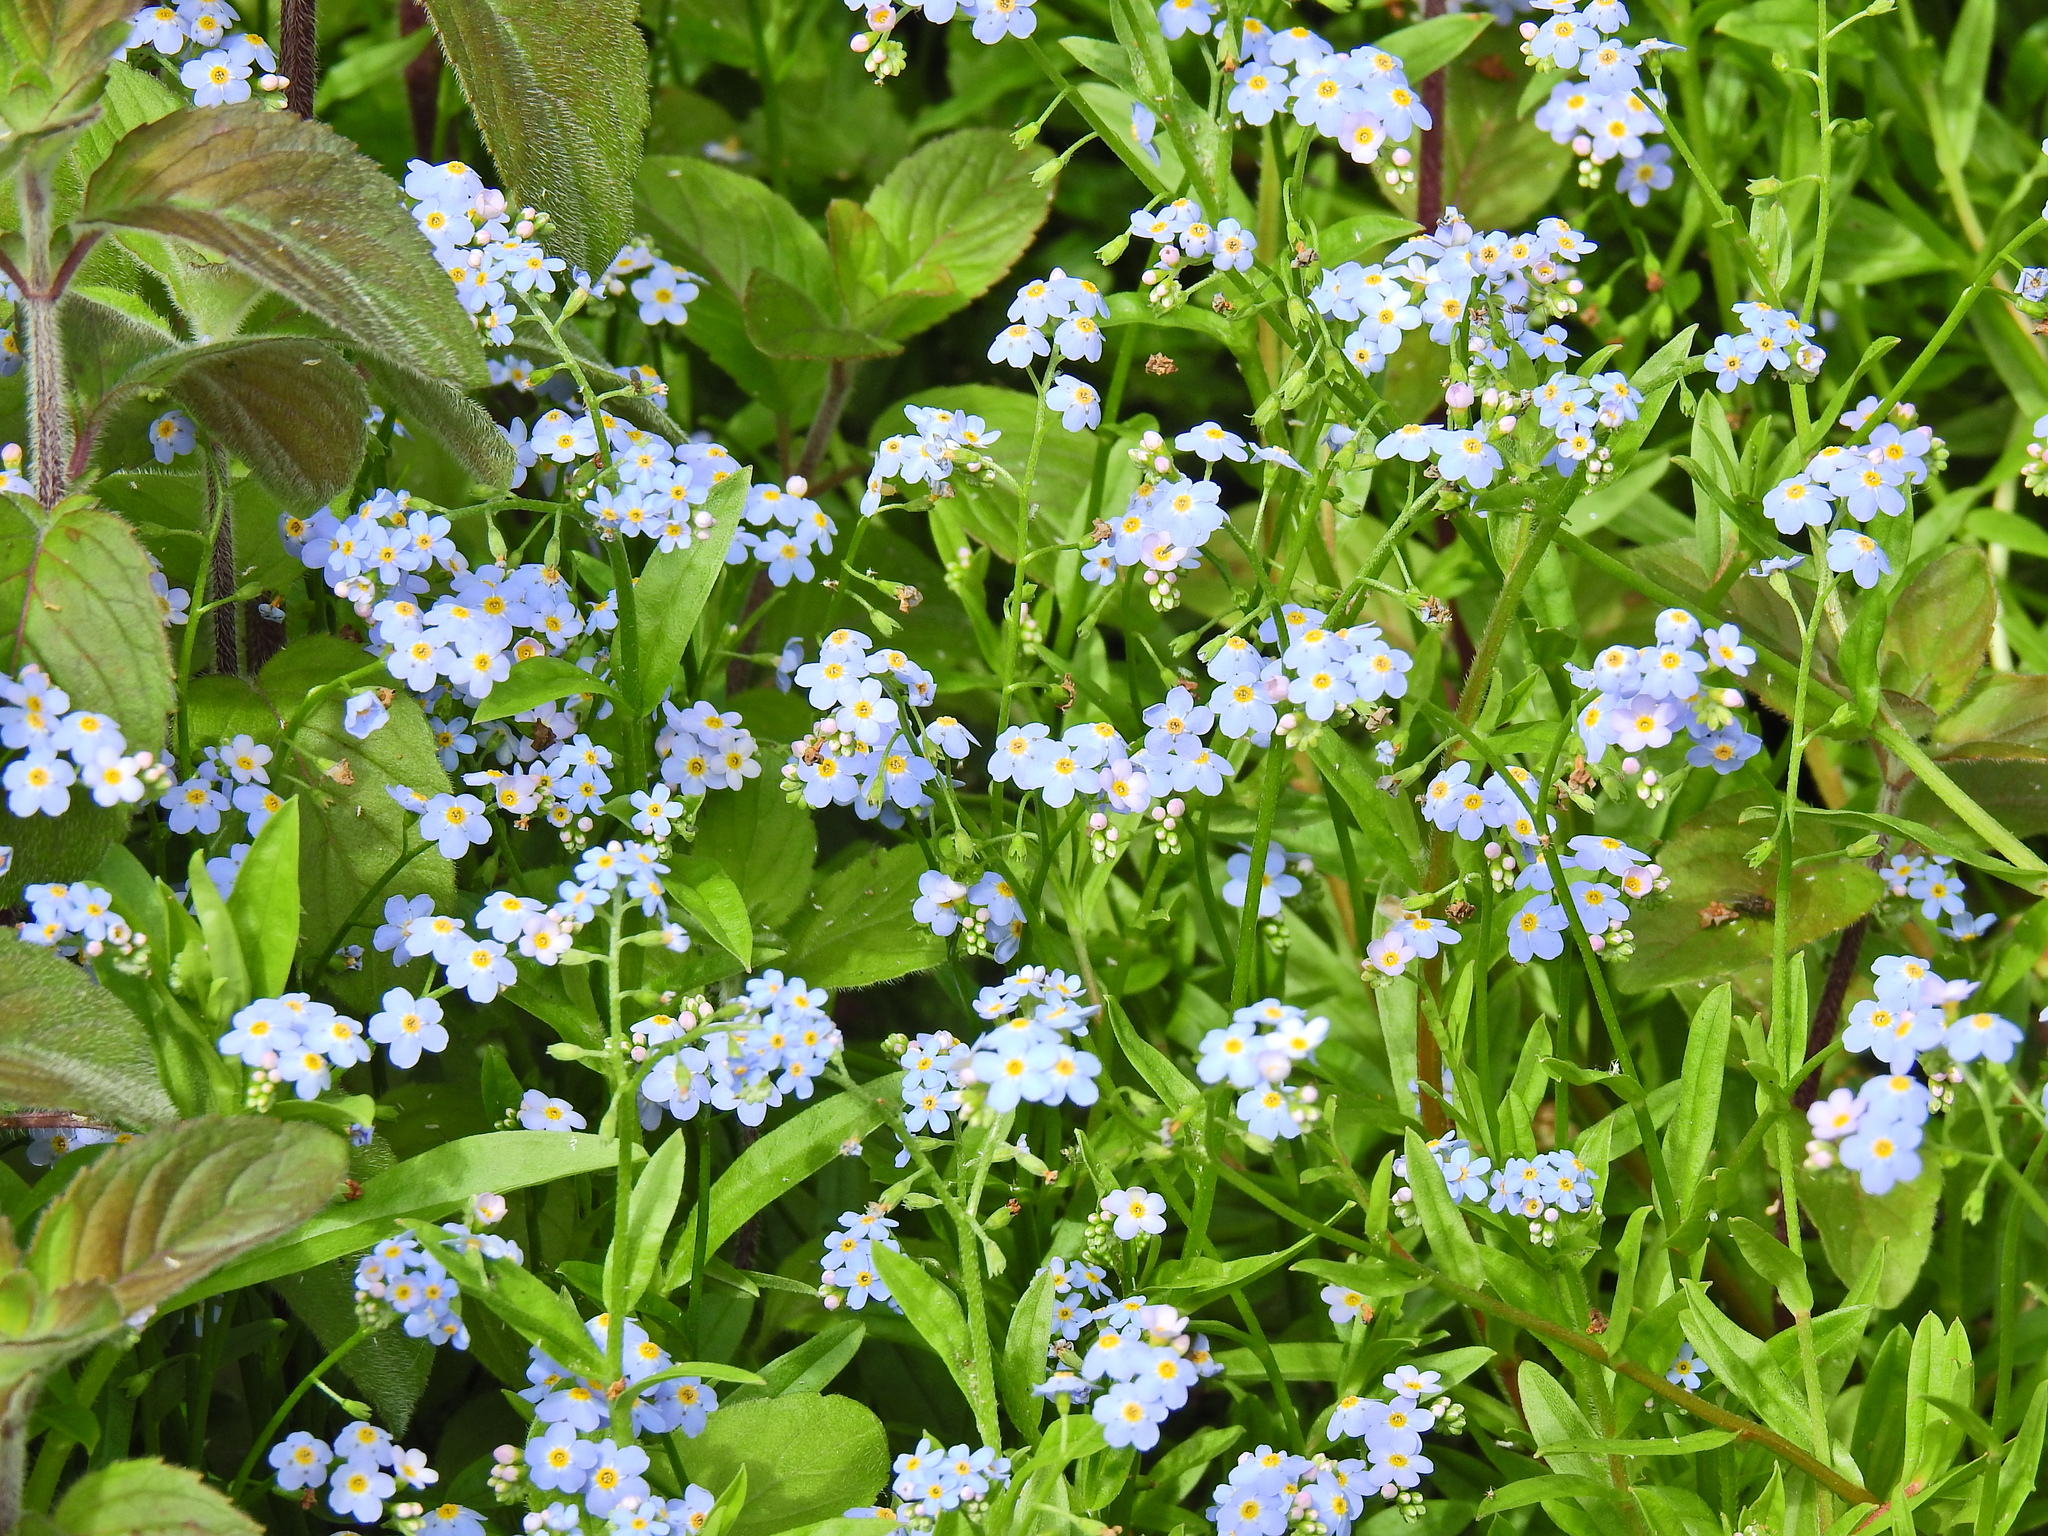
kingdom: Plantae
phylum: Tracheophyta
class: Magnoliopsida
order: Boraginales
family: Boraginaceae
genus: Myosotis
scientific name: Myosotis scorpioides
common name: Water forget-me-not
